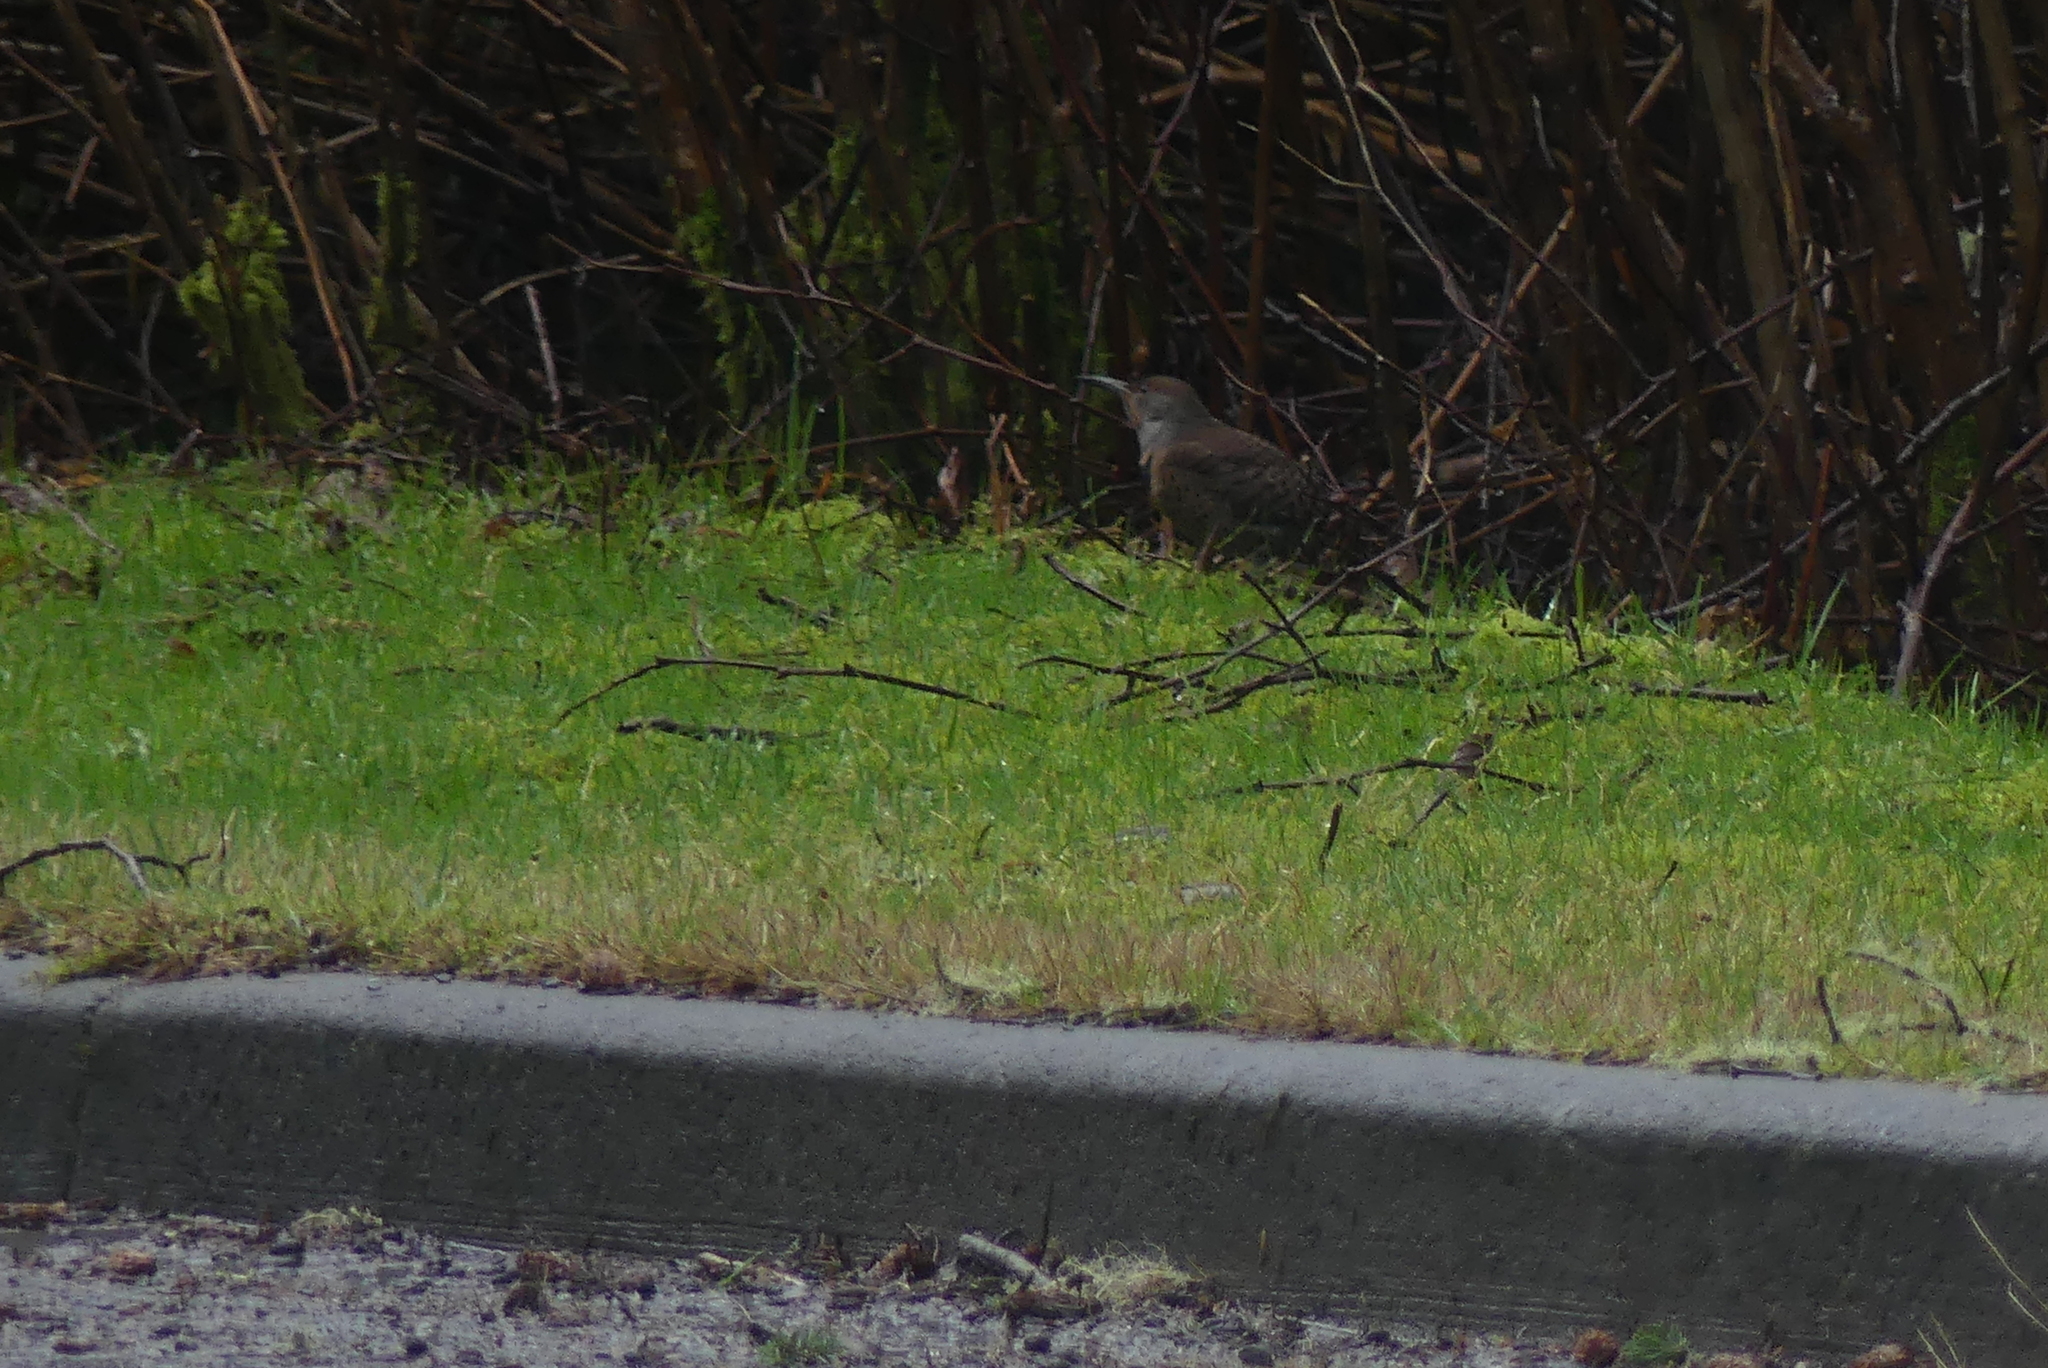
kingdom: Animalia
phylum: Chordata
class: Aves
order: Piciformes
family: Picidae
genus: Colaptes
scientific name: Colaptes auratus
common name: Northern flicker
